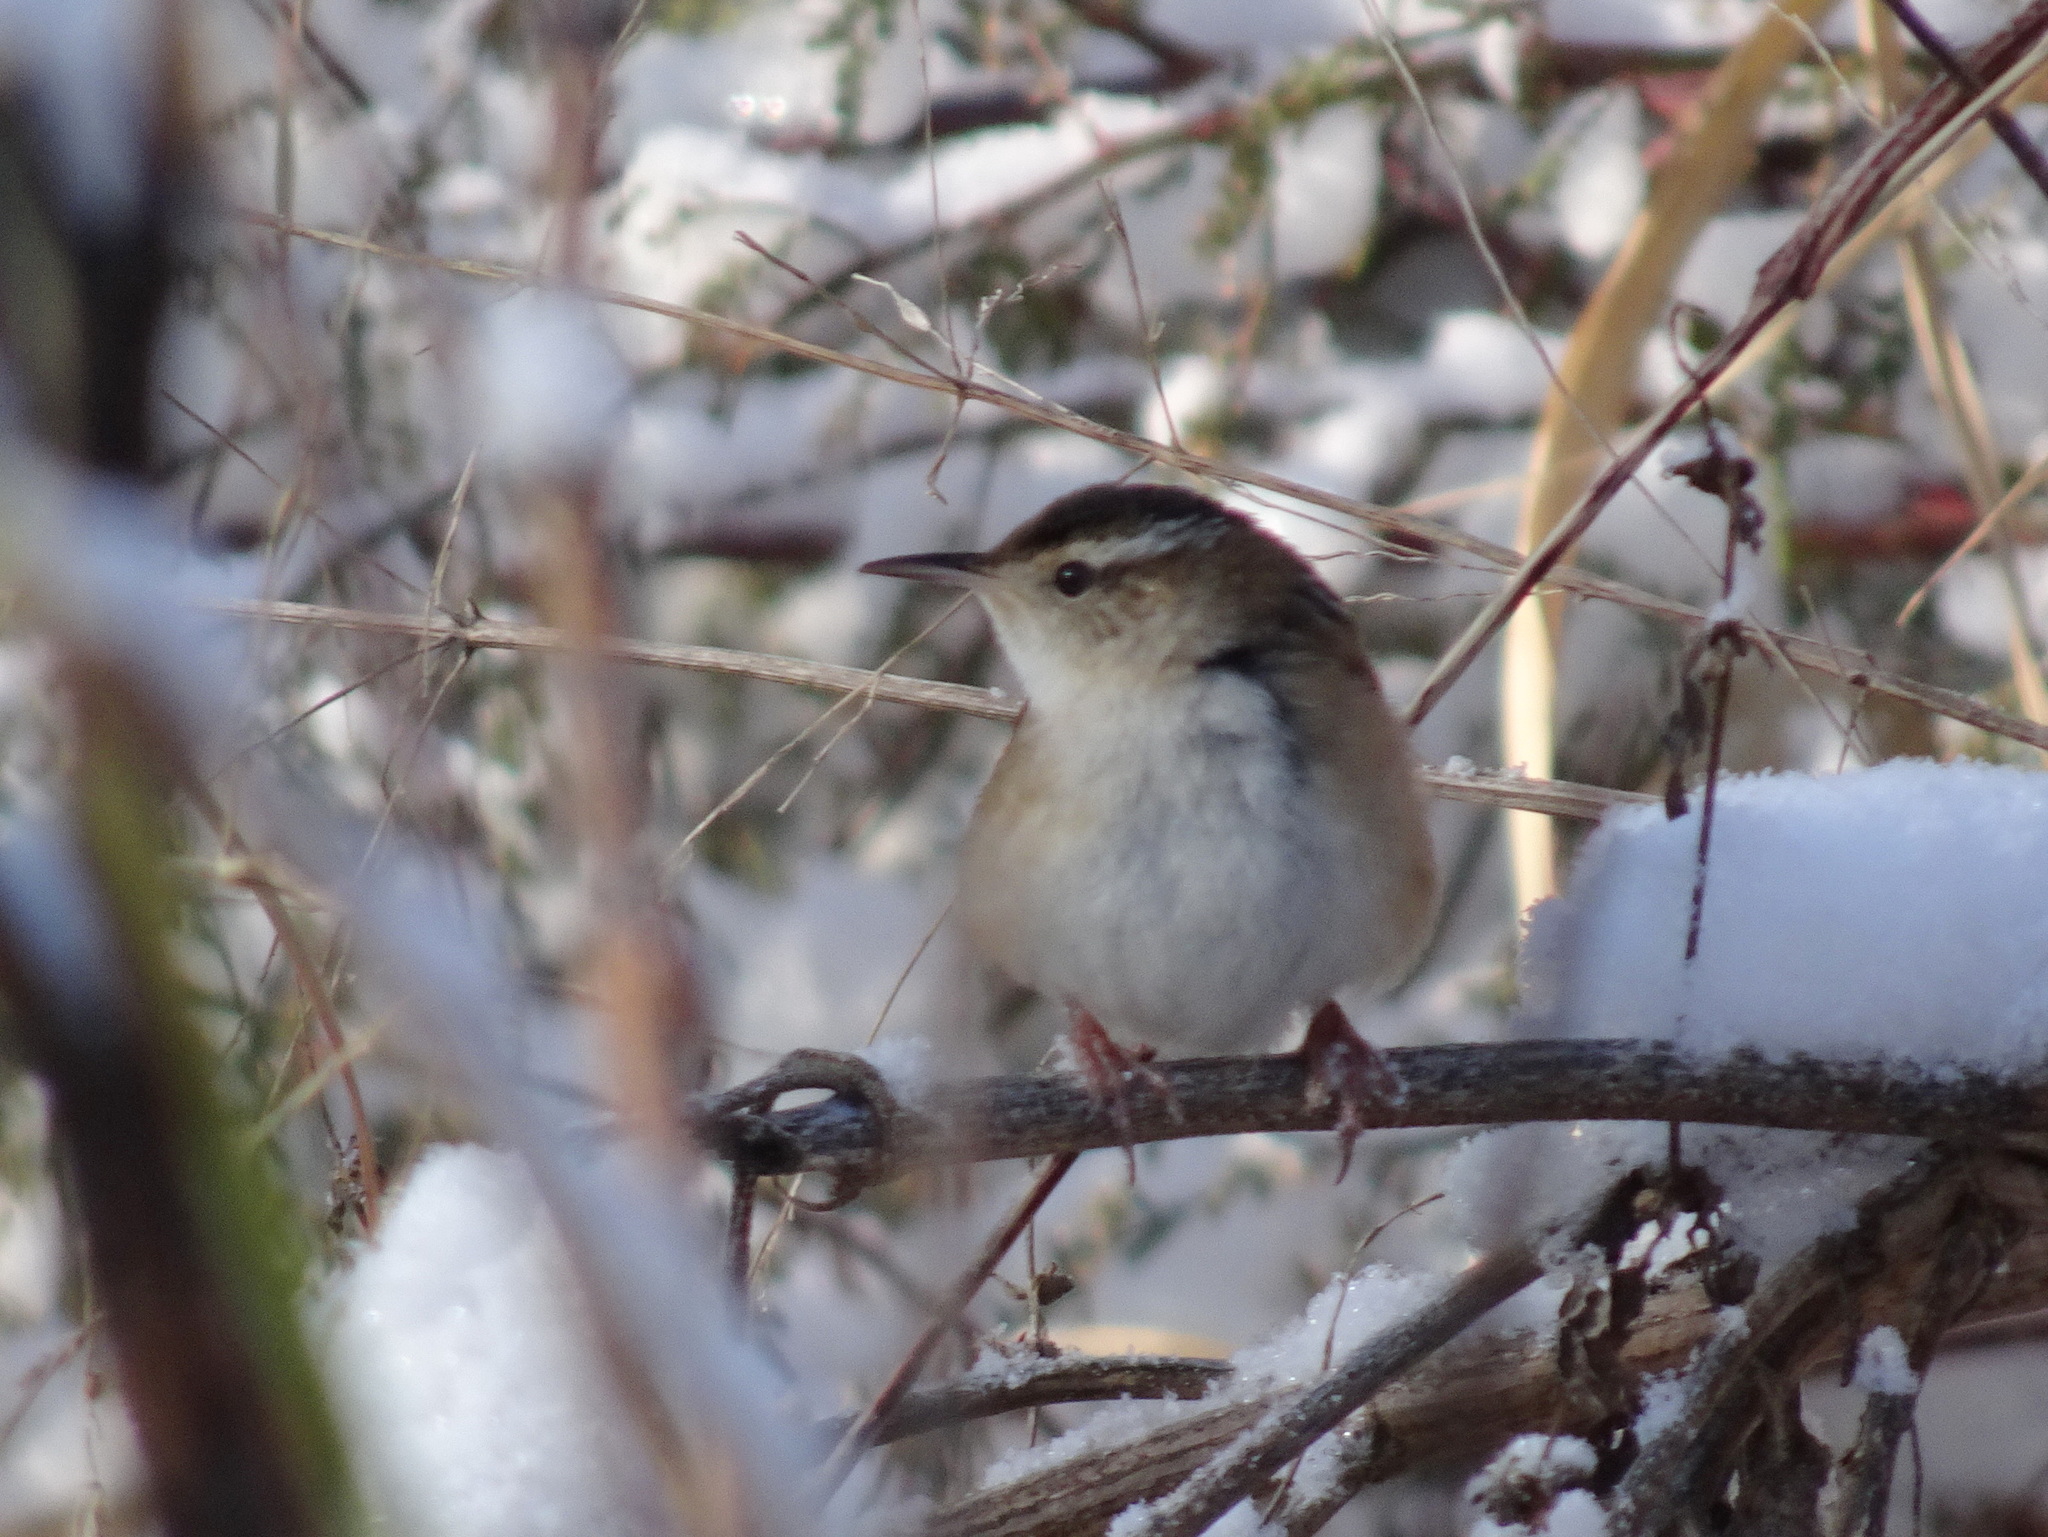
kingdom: Animalia
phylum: Chordata
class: Aves
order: Passeriformes
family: Troglodytidae
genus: Cistothorus
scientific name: Cistothorus palustris
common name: Marsh wren
